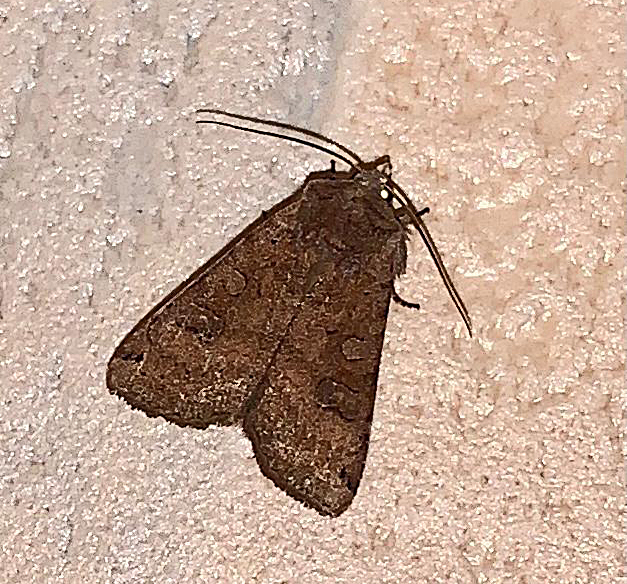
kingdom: Animalia
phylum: Arthropoda
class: Insecta
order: Lepidoptera
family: Noctuidae
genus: Xestia
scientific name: Xestia baja
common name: Dotted clay
